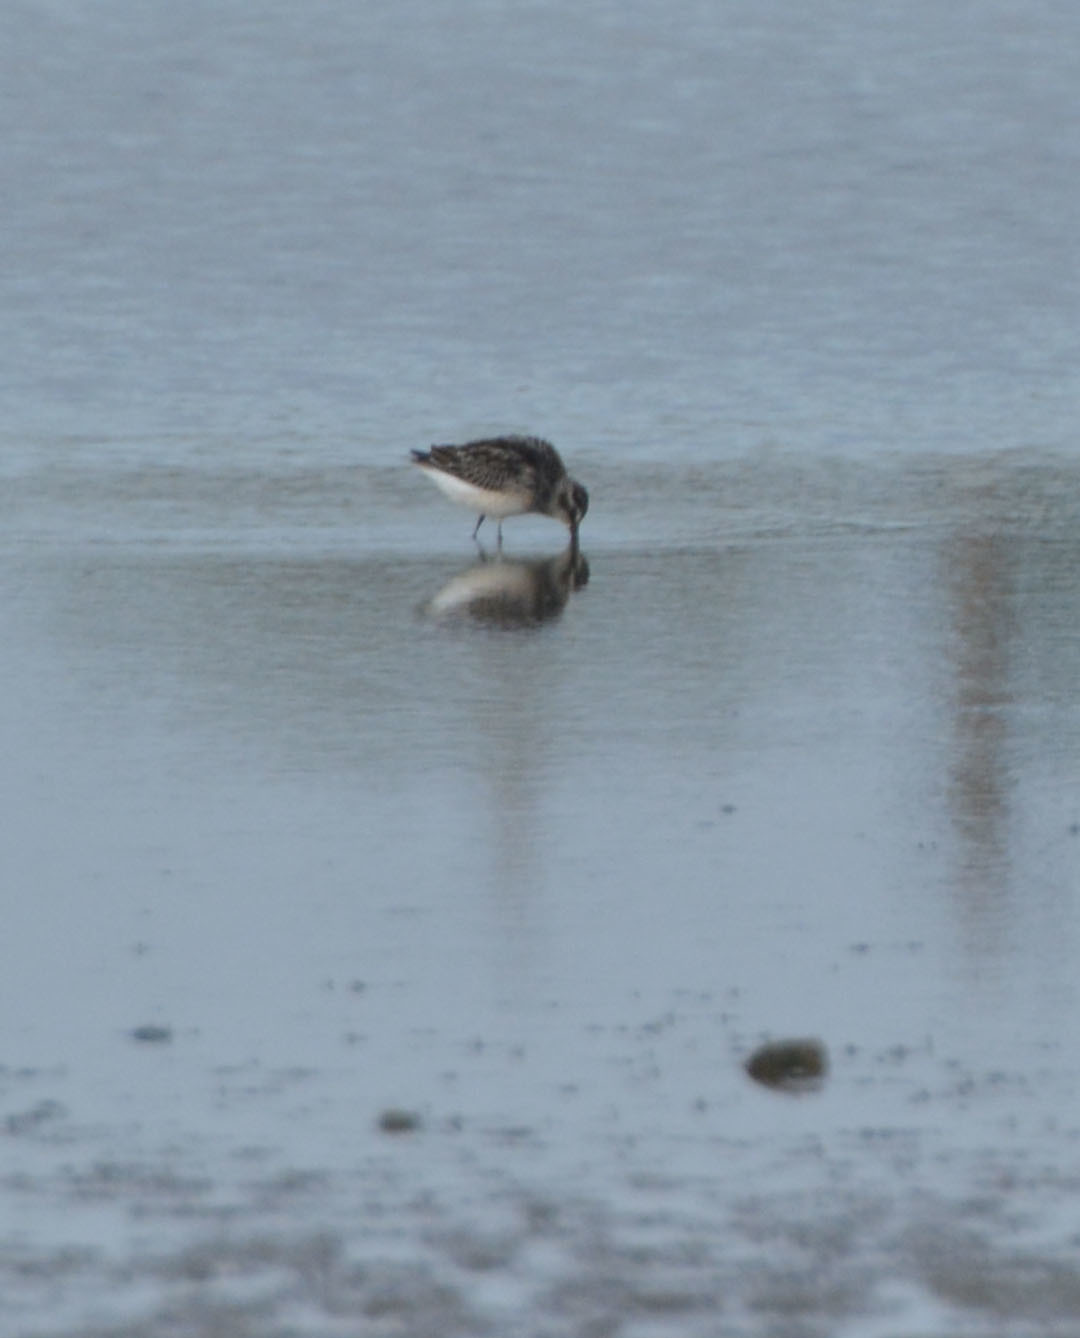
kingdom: Animalia
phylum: Chordata
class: Aves
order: Charadriiformes
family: Scolopacidae
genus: Calidris
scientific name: Calidris falcinellus
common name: Broad-billed sandpiper
